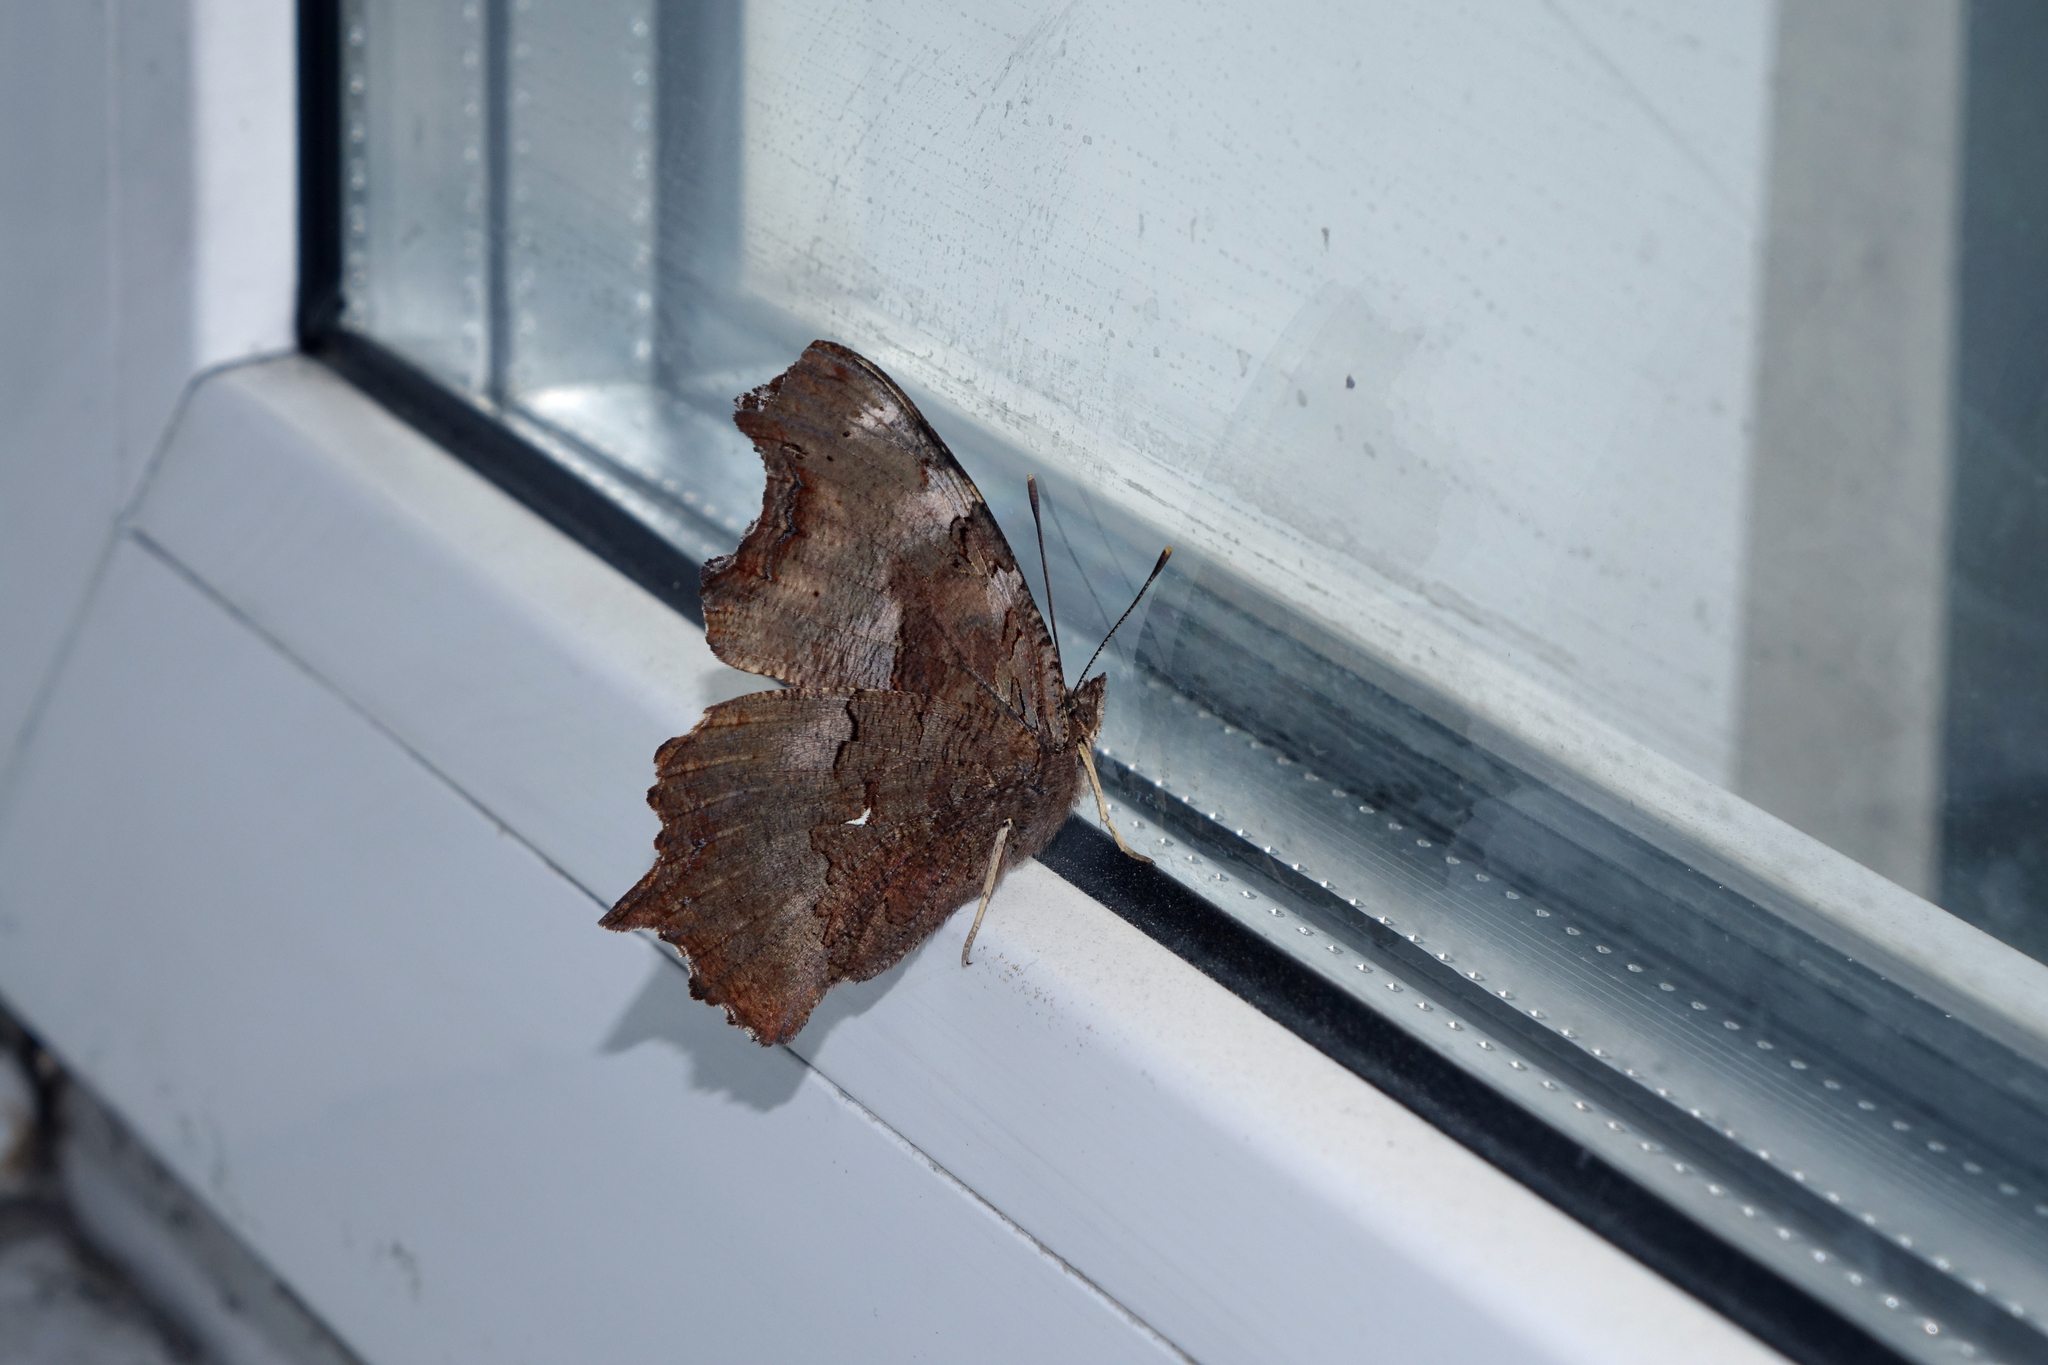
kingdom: Animalia
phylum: Arthropoda
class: Insecta
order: Lepidoptera
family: Nymphalidae
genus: Polygonia
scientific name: Polygonia vaualbum
